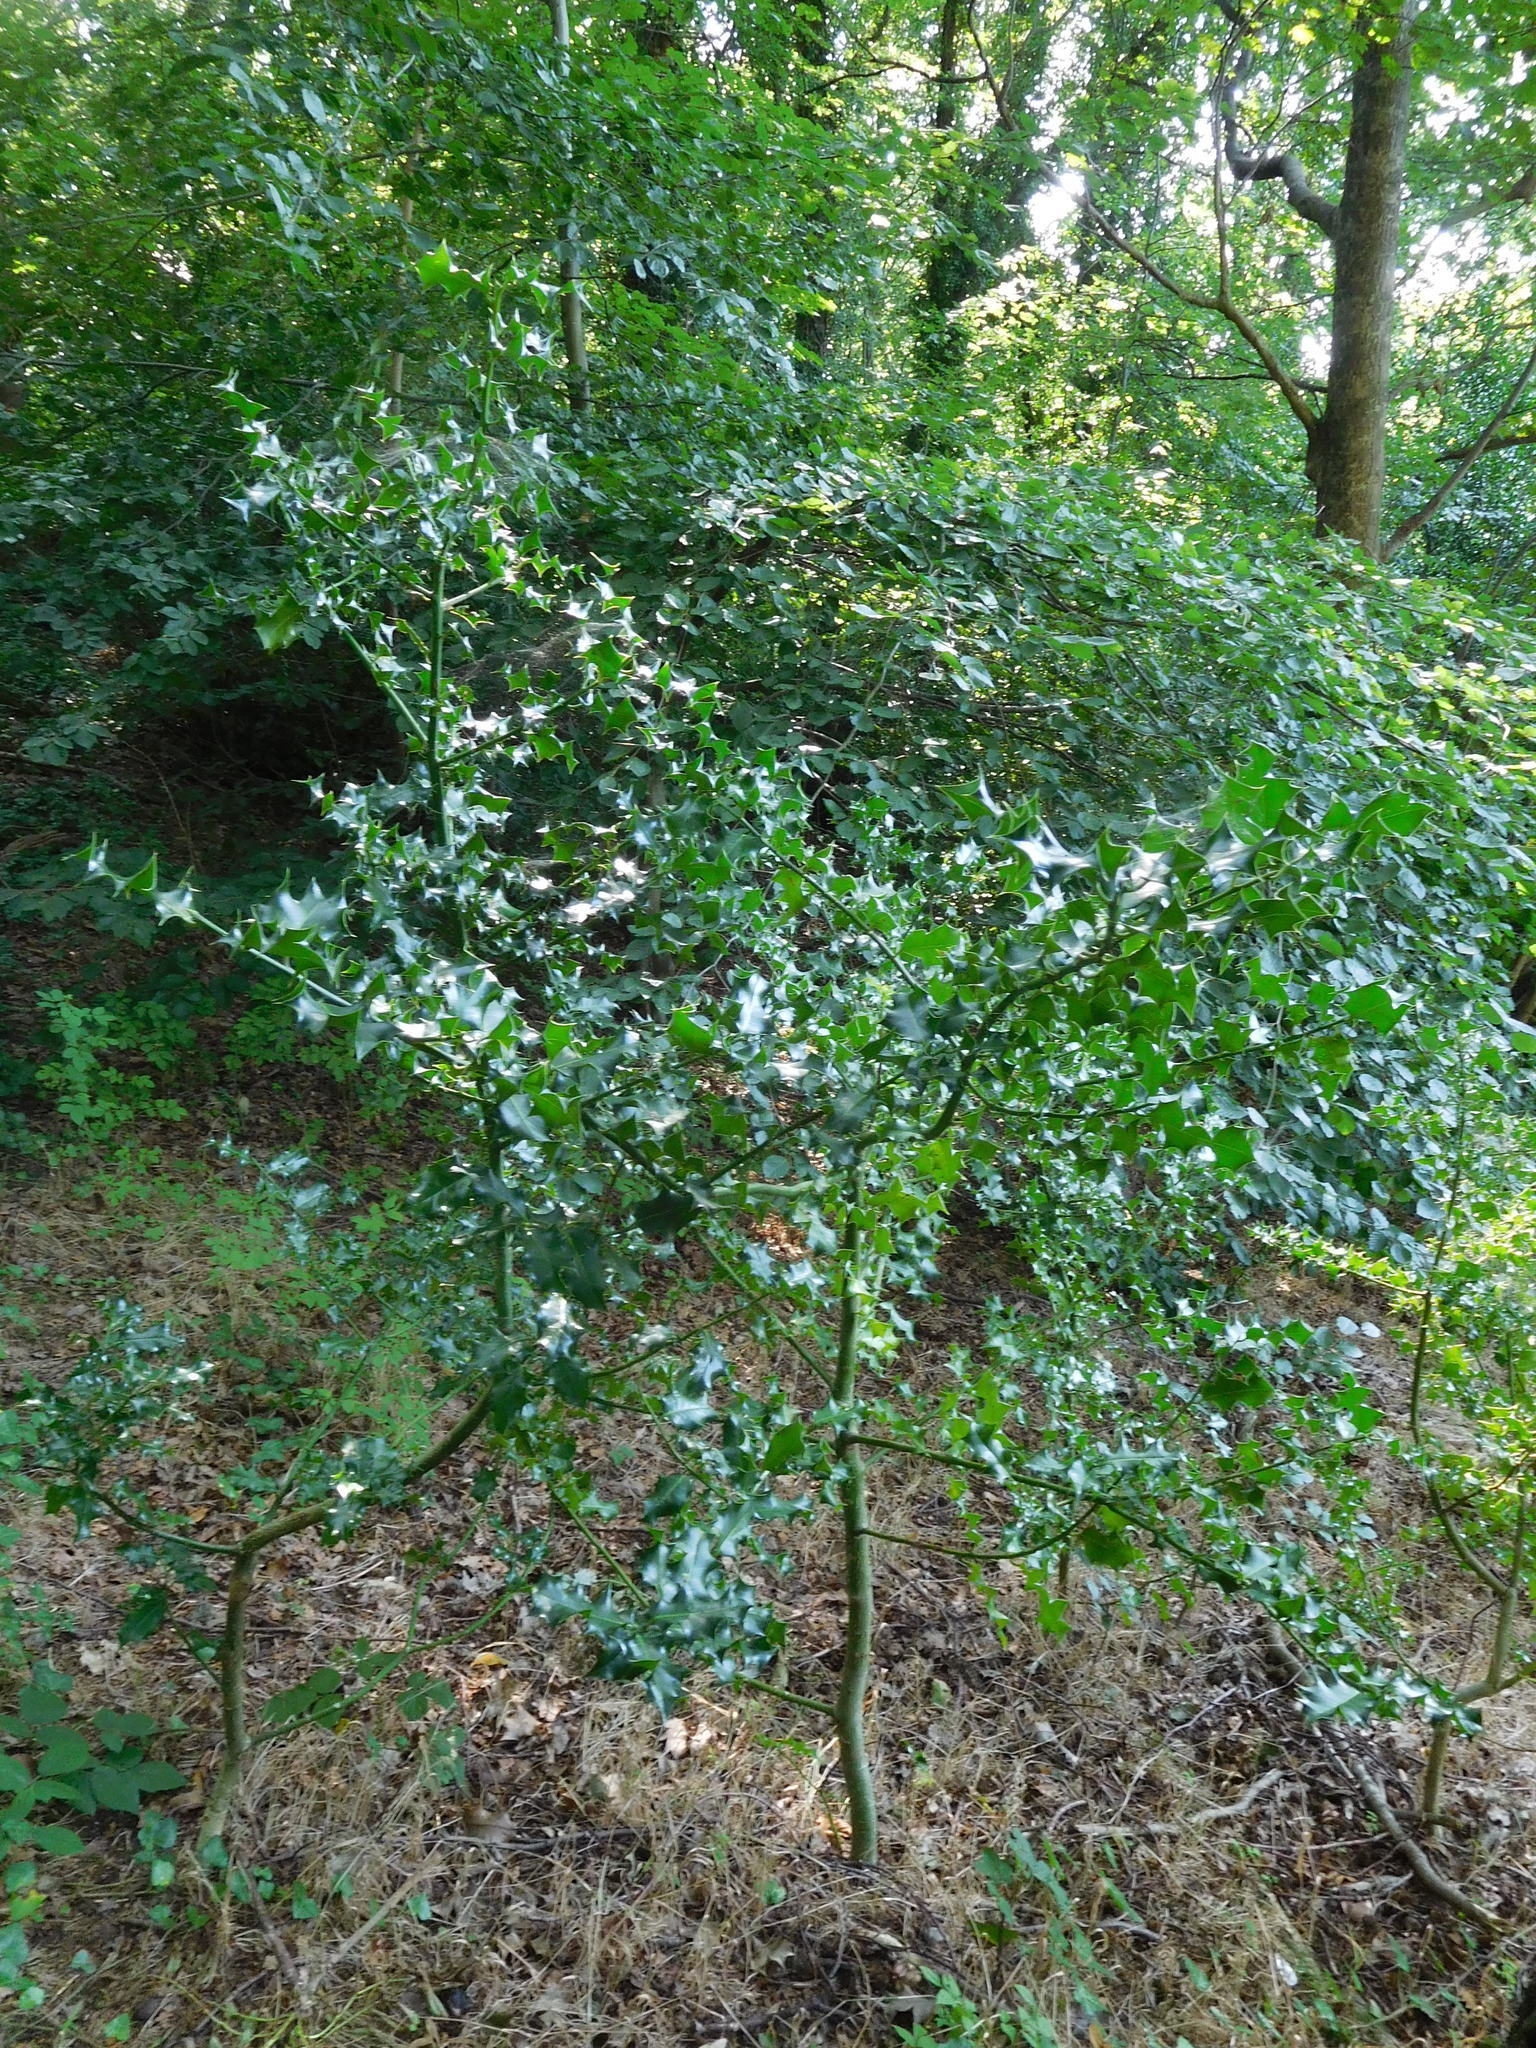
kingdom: Plantae
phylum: Tracheophyta
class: Magnoliopsida
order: Aquifoliales
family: Aquifoliaceae
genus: Ilex
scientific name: Ilex aquifolium
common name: English holly
